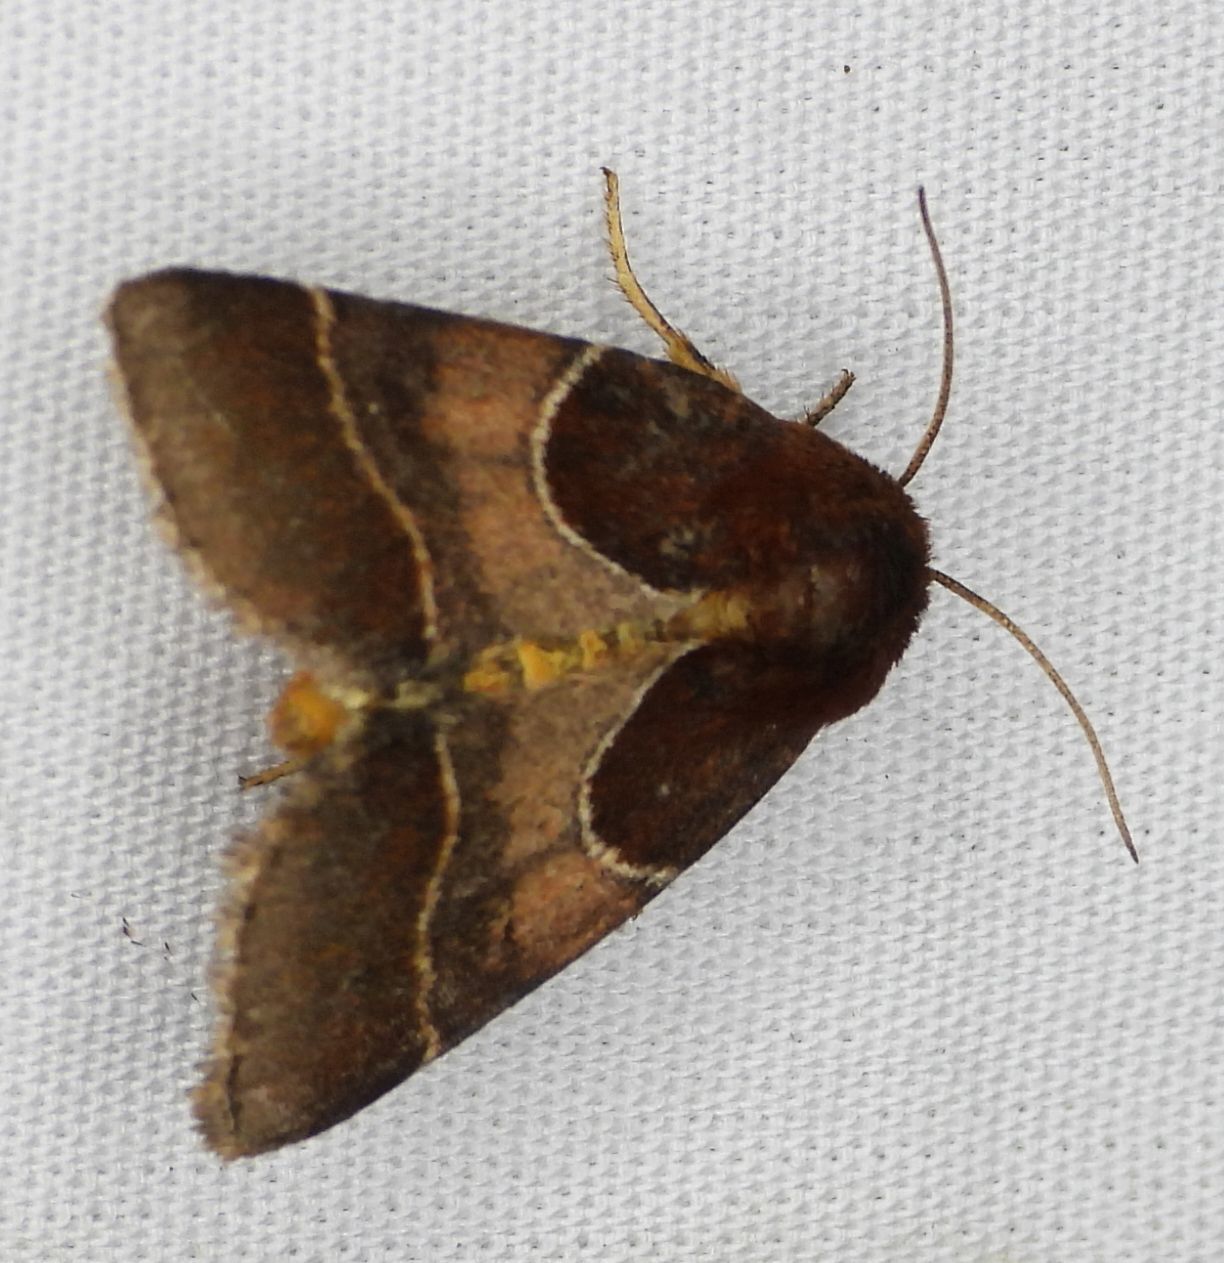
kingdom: Animalia
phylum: Arthropoda
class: Insecta
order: Lepidoptera
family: Noctuidae
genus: Schinia
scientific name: Schinia arcigera
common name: Arcigera flower moth
